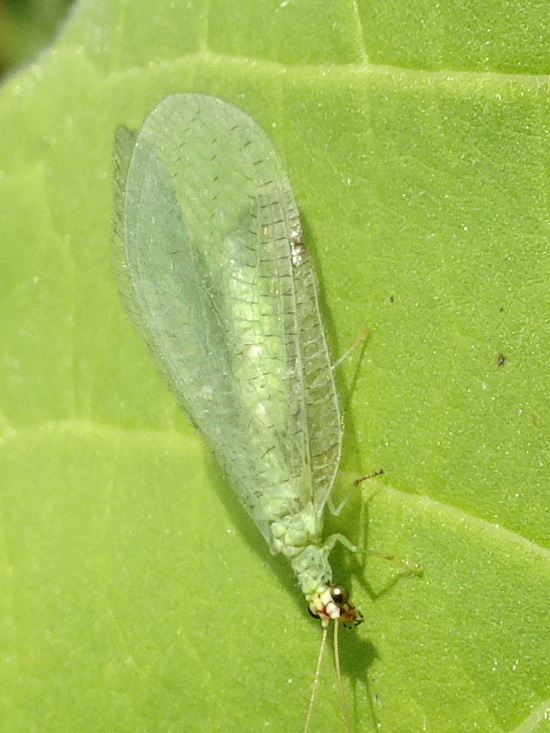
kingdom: Animalia
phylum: Arthropoda
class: Insecta
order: Neuroptera
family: Chrysopidae
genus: Chrysopa
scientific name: Chrysopa oculata
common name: Golden-eyed lacewing
